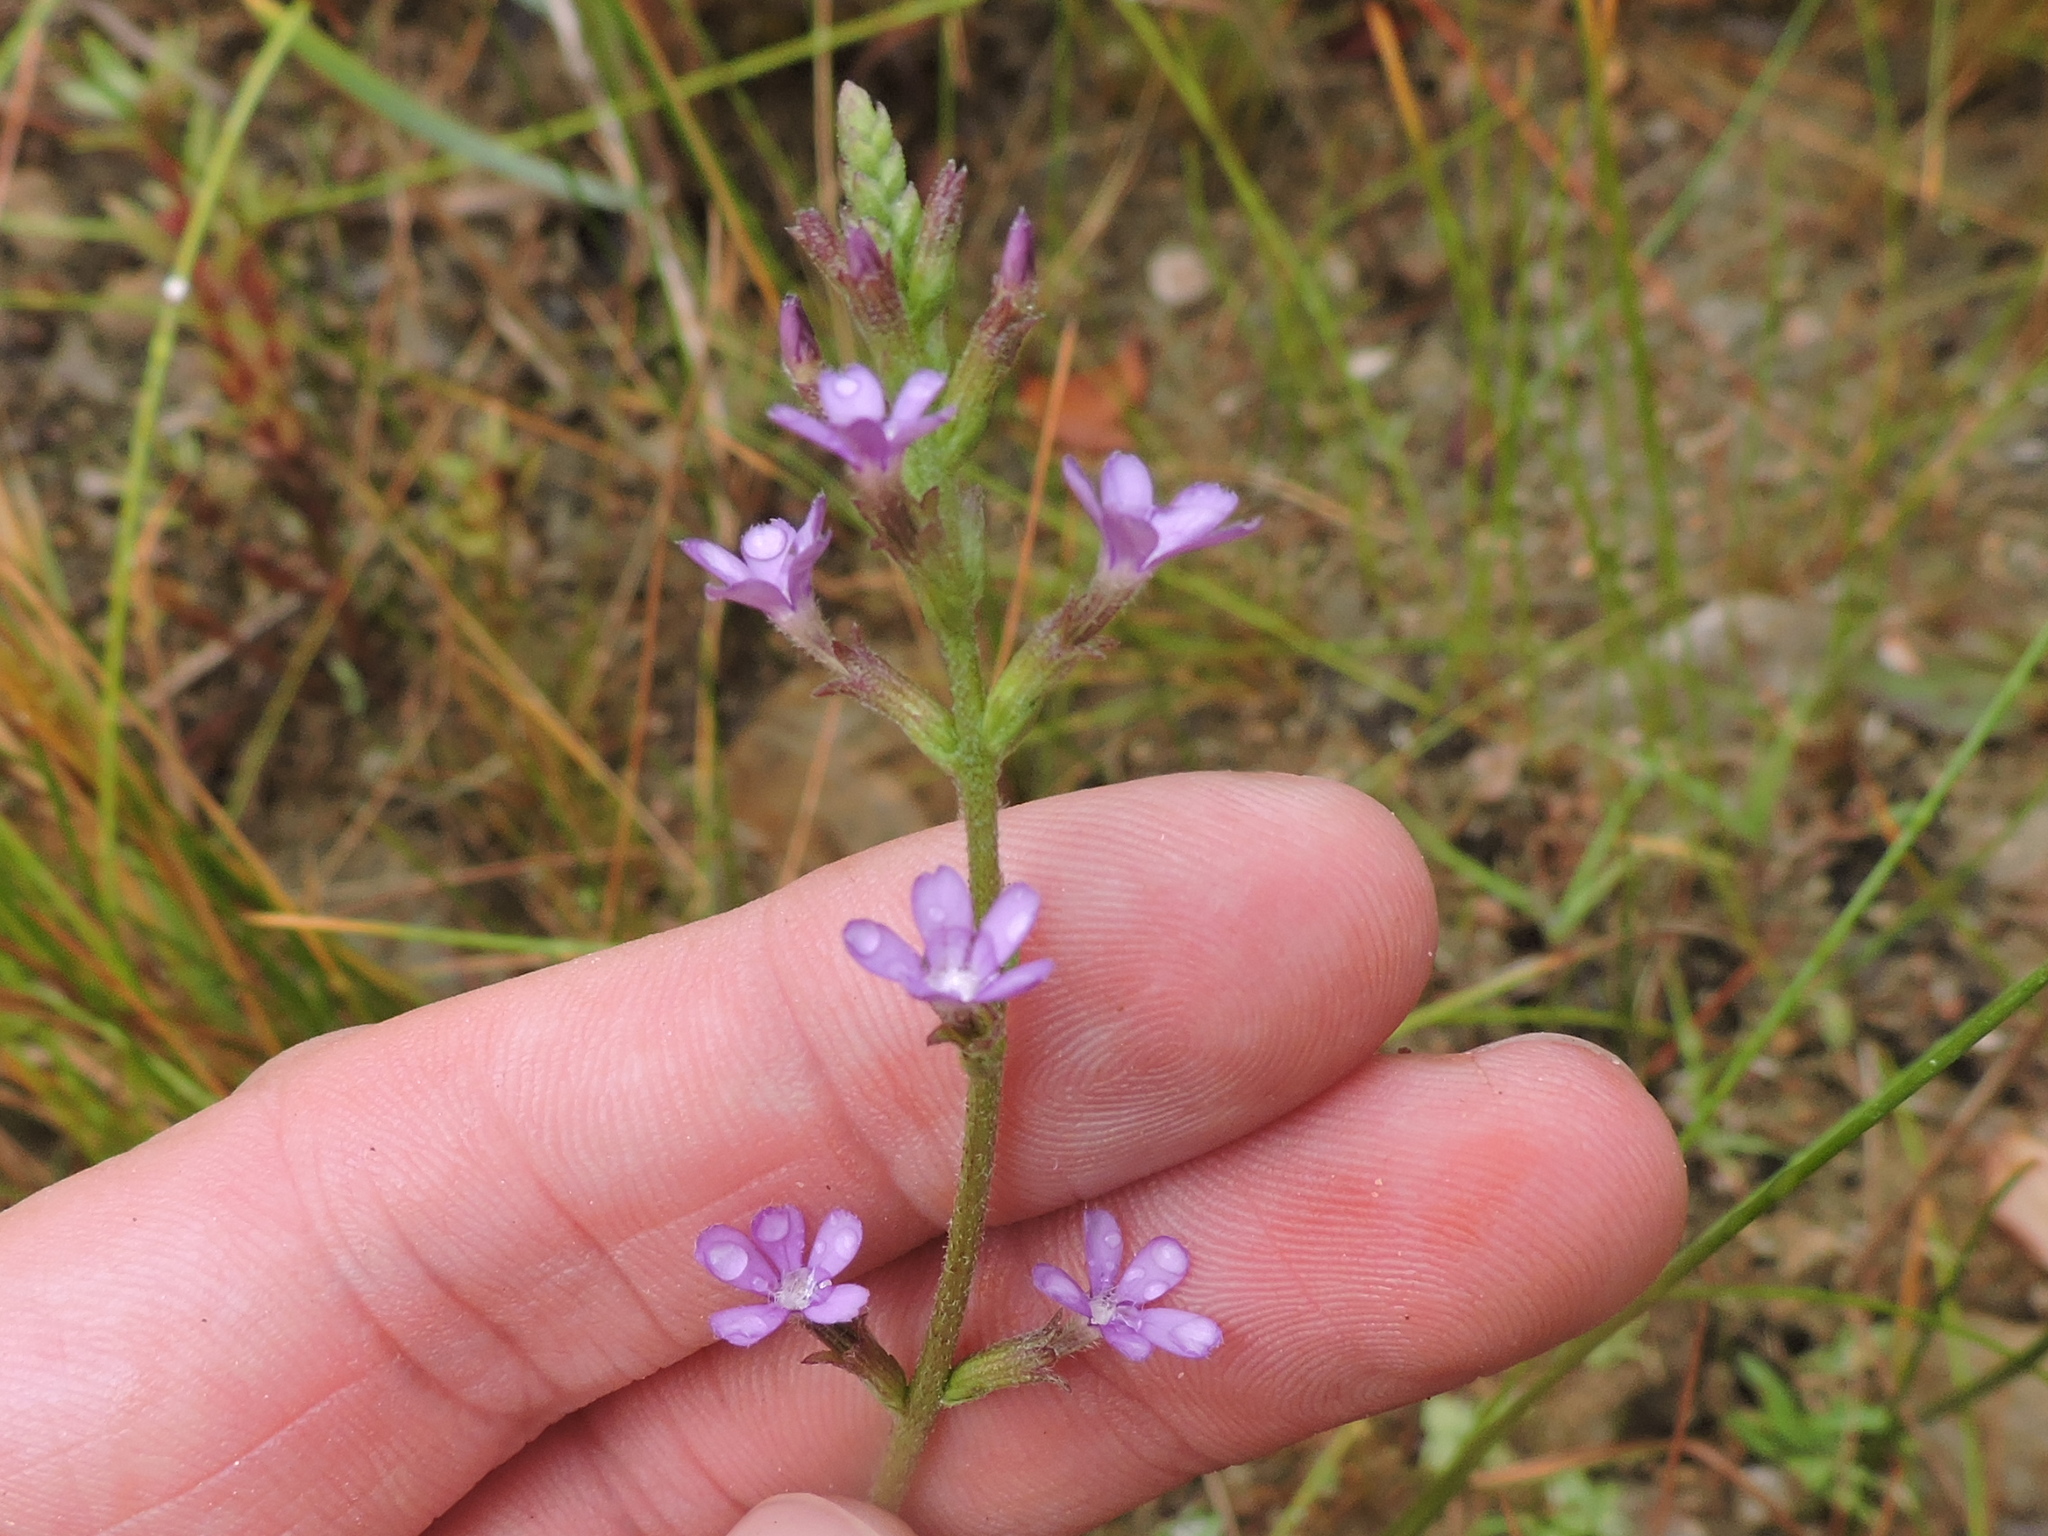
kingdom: Plantae
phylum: Tracheophyta
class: Magnoliopsida
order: Lamiales
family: Orobanchaceae
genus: Buchnera
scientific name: Buchnera floridana
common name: Florida bluehearts
